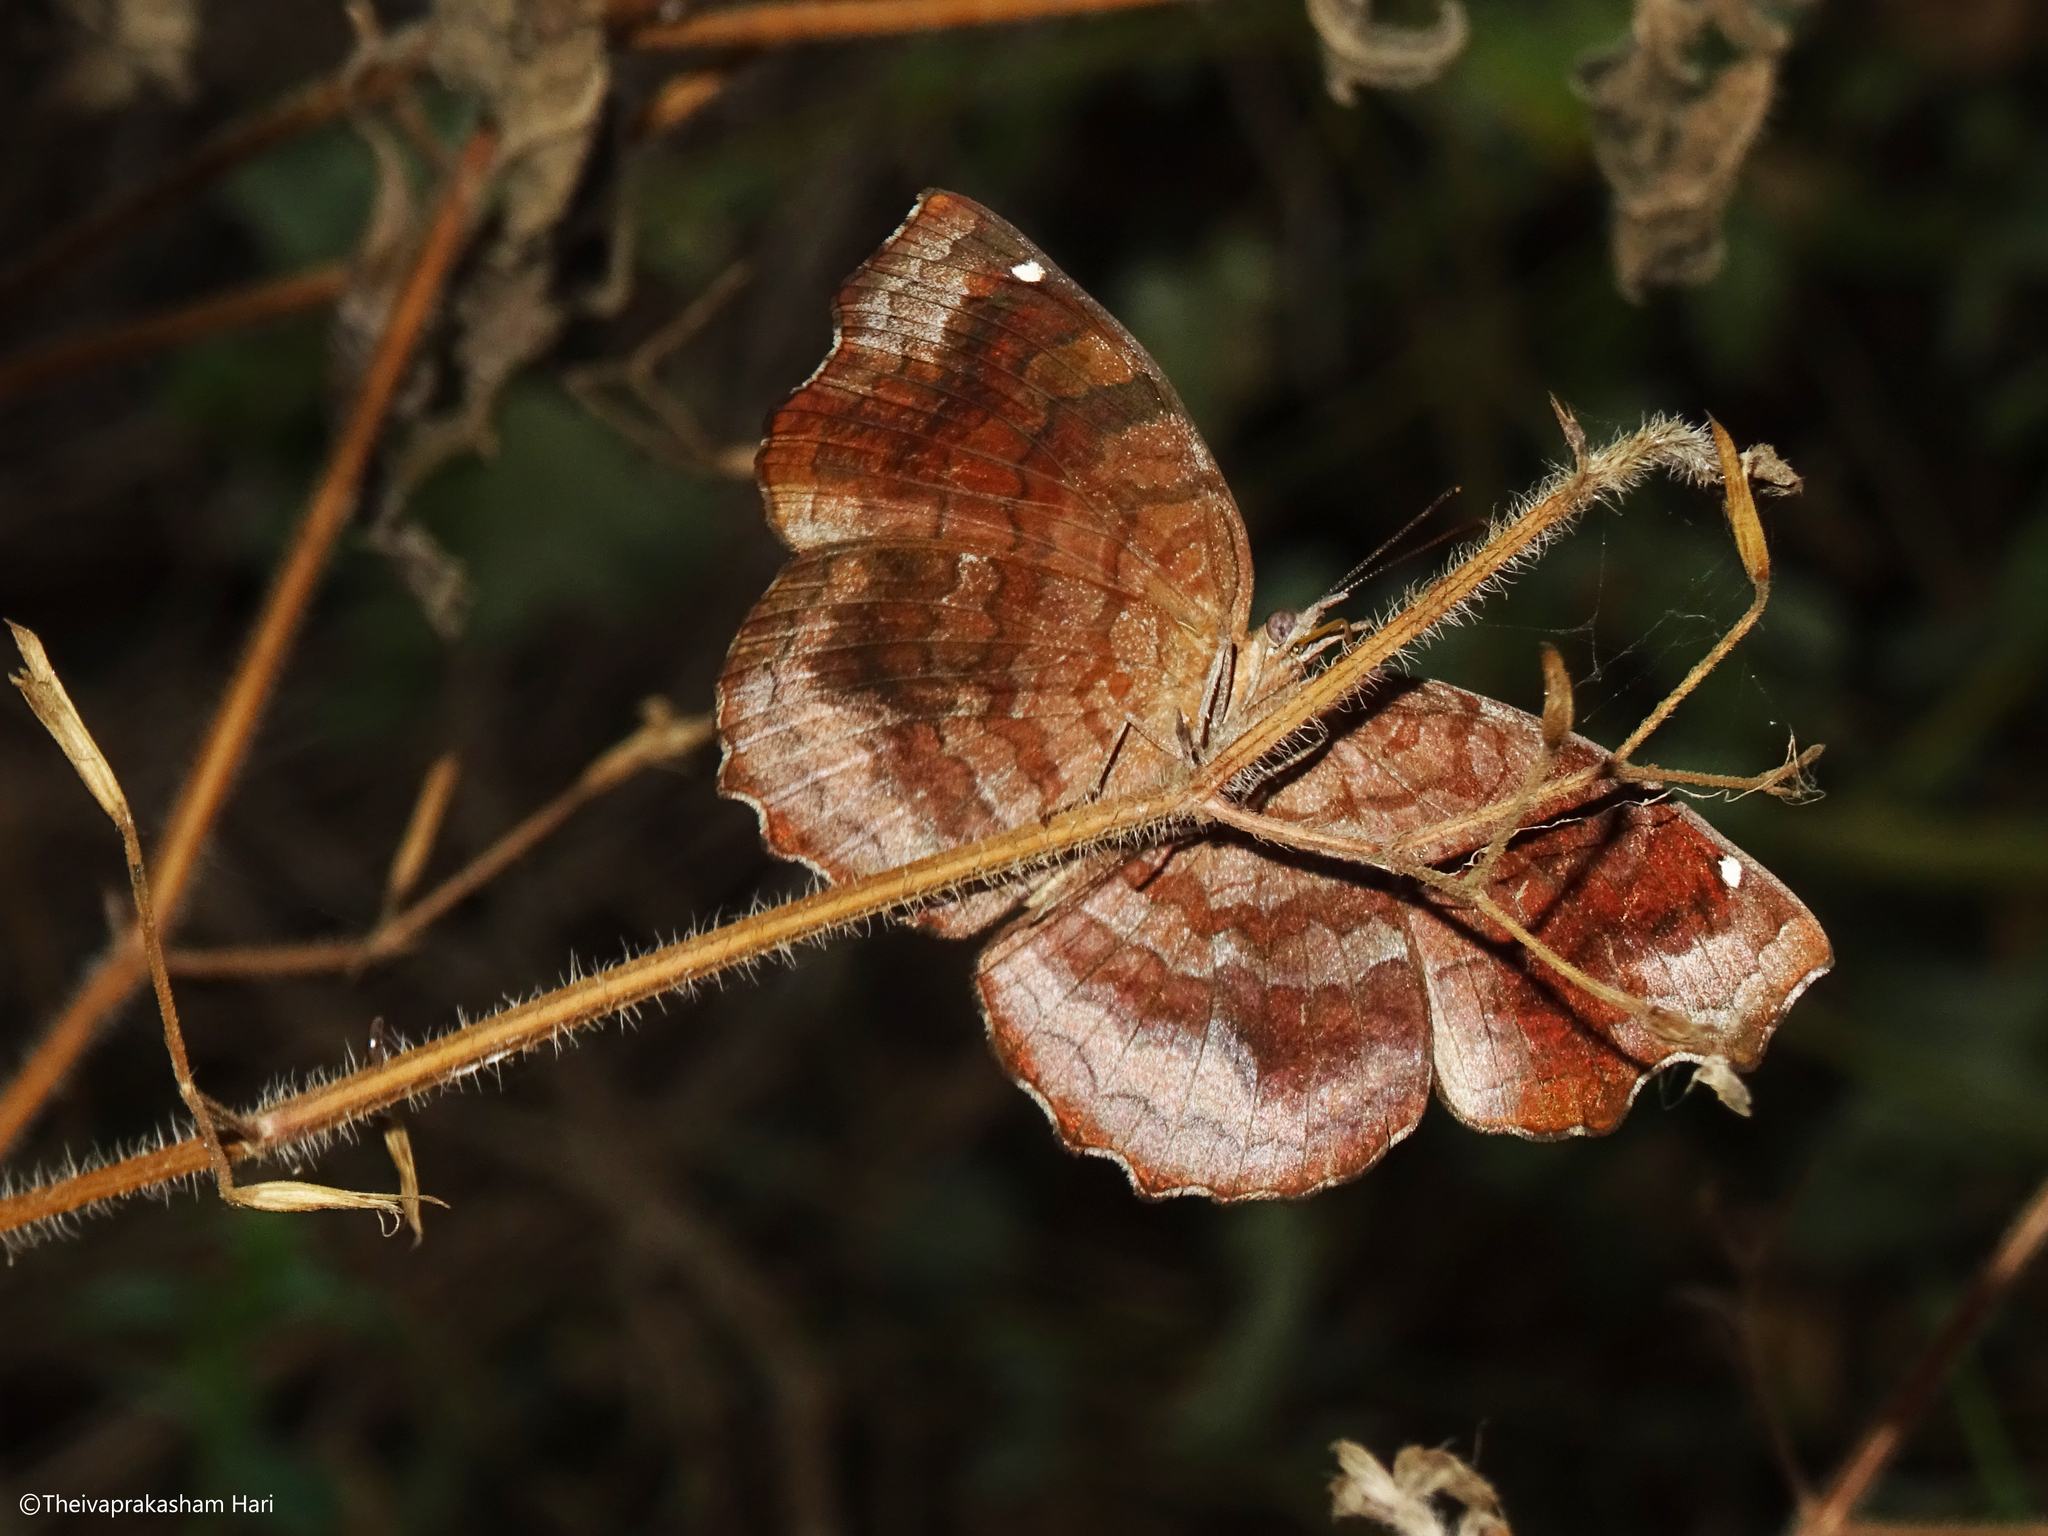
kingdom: Animalia
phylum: Arthropoda
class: Insecta
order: Lepidoptera
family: Nymphalidae
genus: Ariadne
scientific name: Ariadne ariadne
